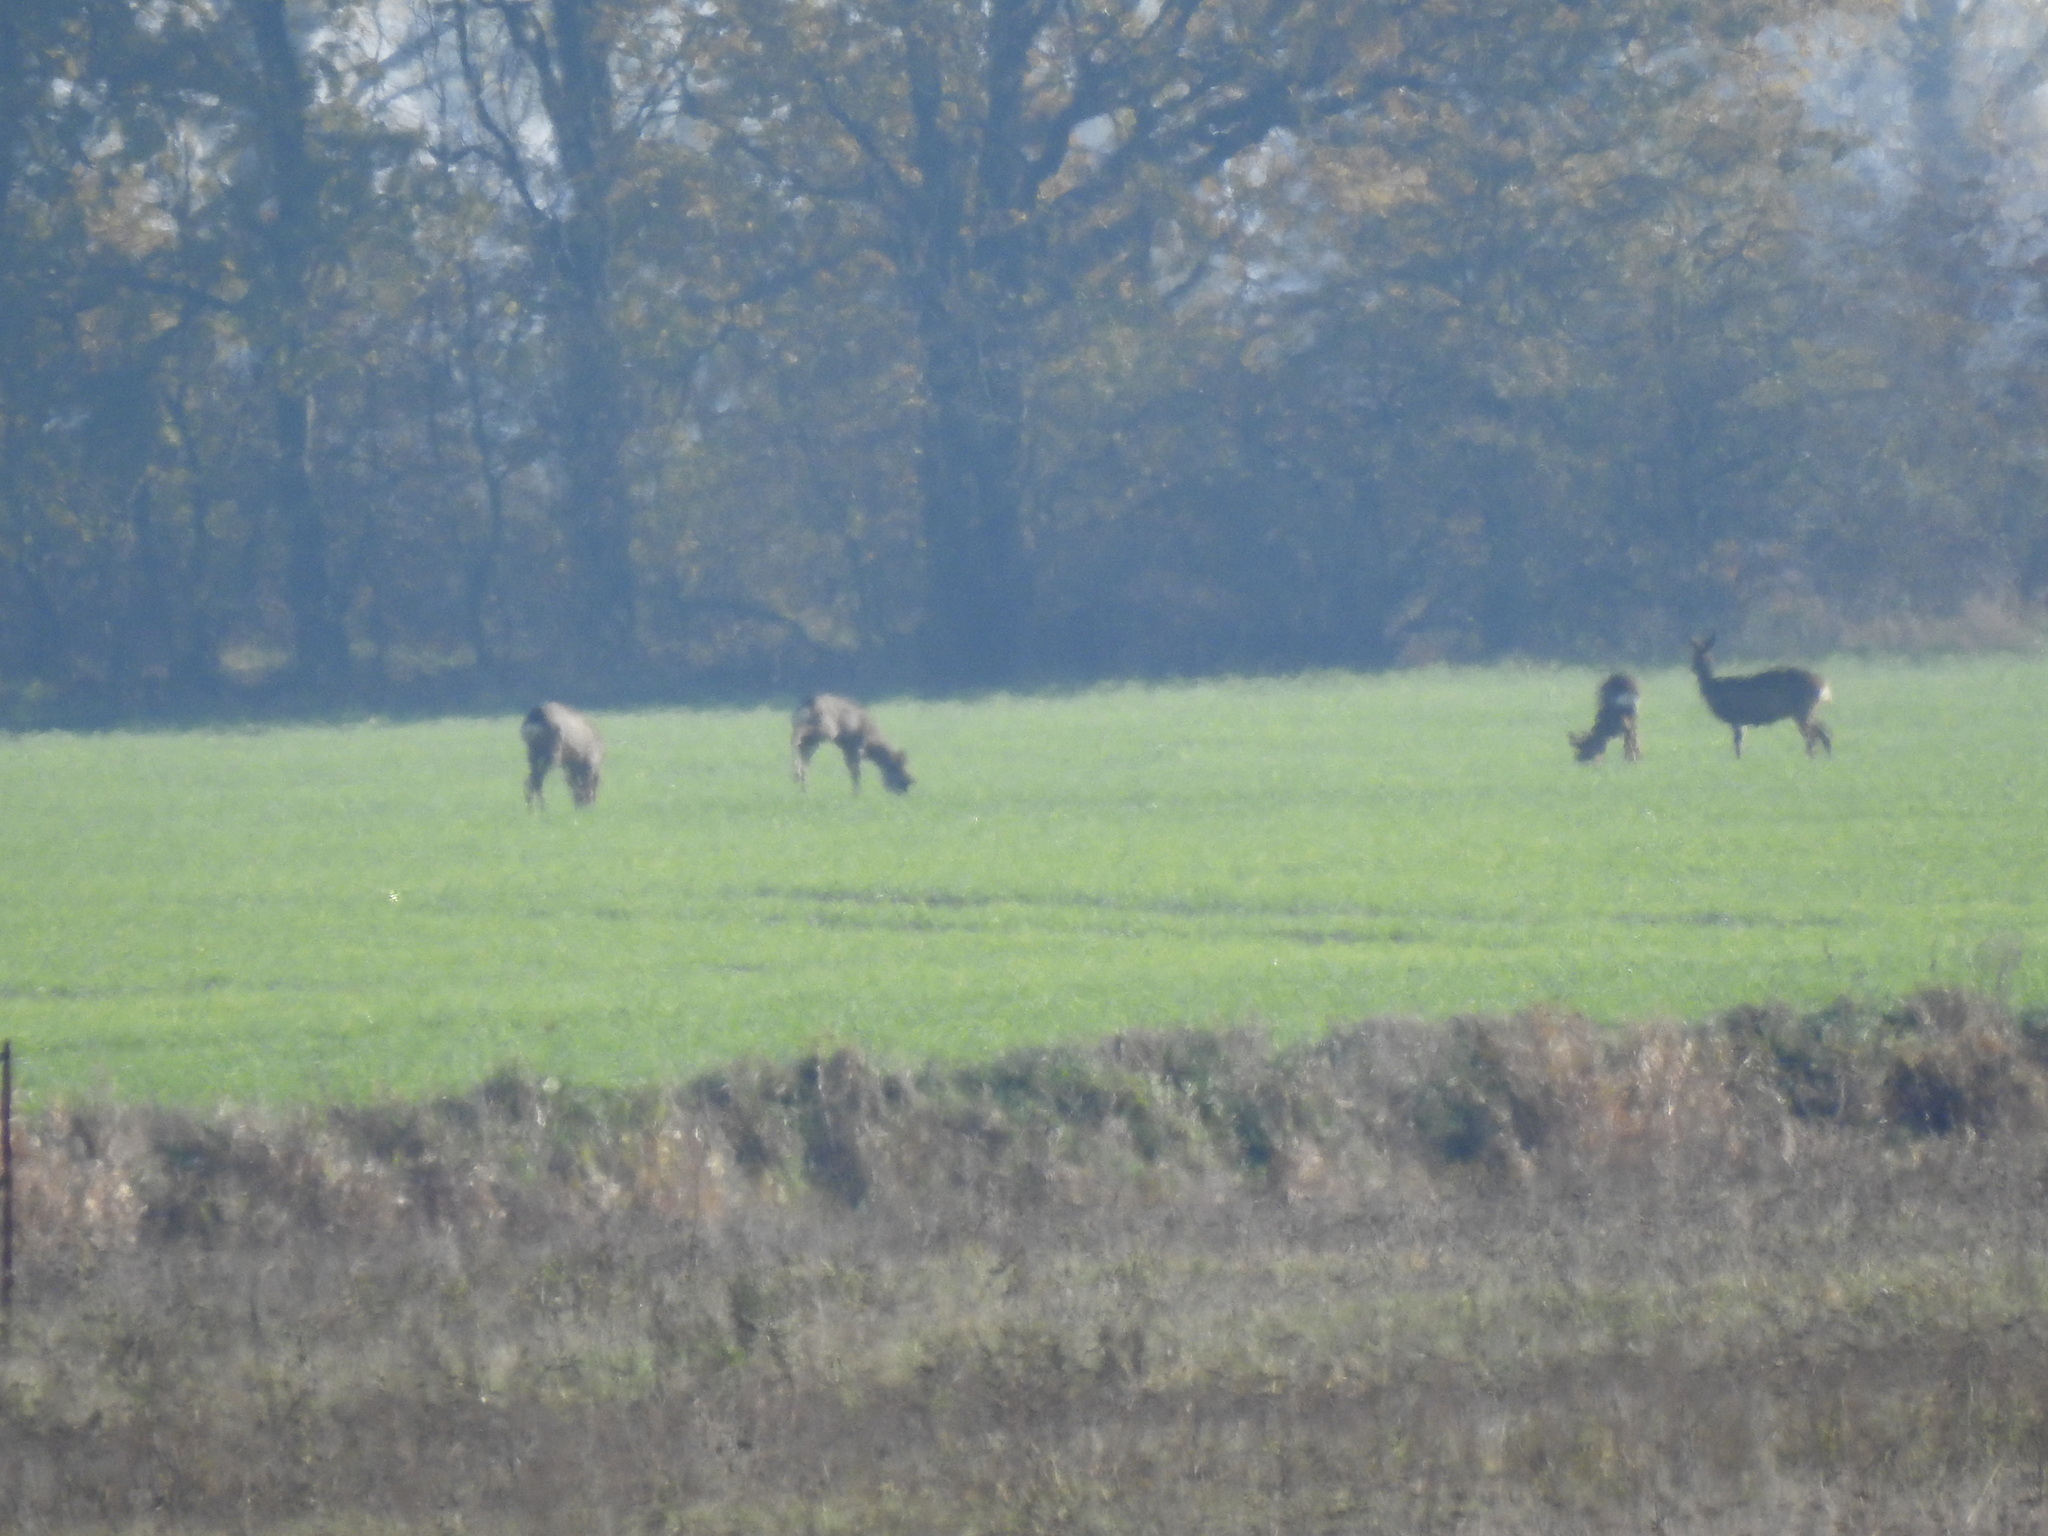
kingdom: Animalia
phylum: Chordata
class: Mammalia
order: Artiodactyla
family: Cervidae
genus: Capreolus
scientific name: Capreolus capreolus
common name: Western roe deer
